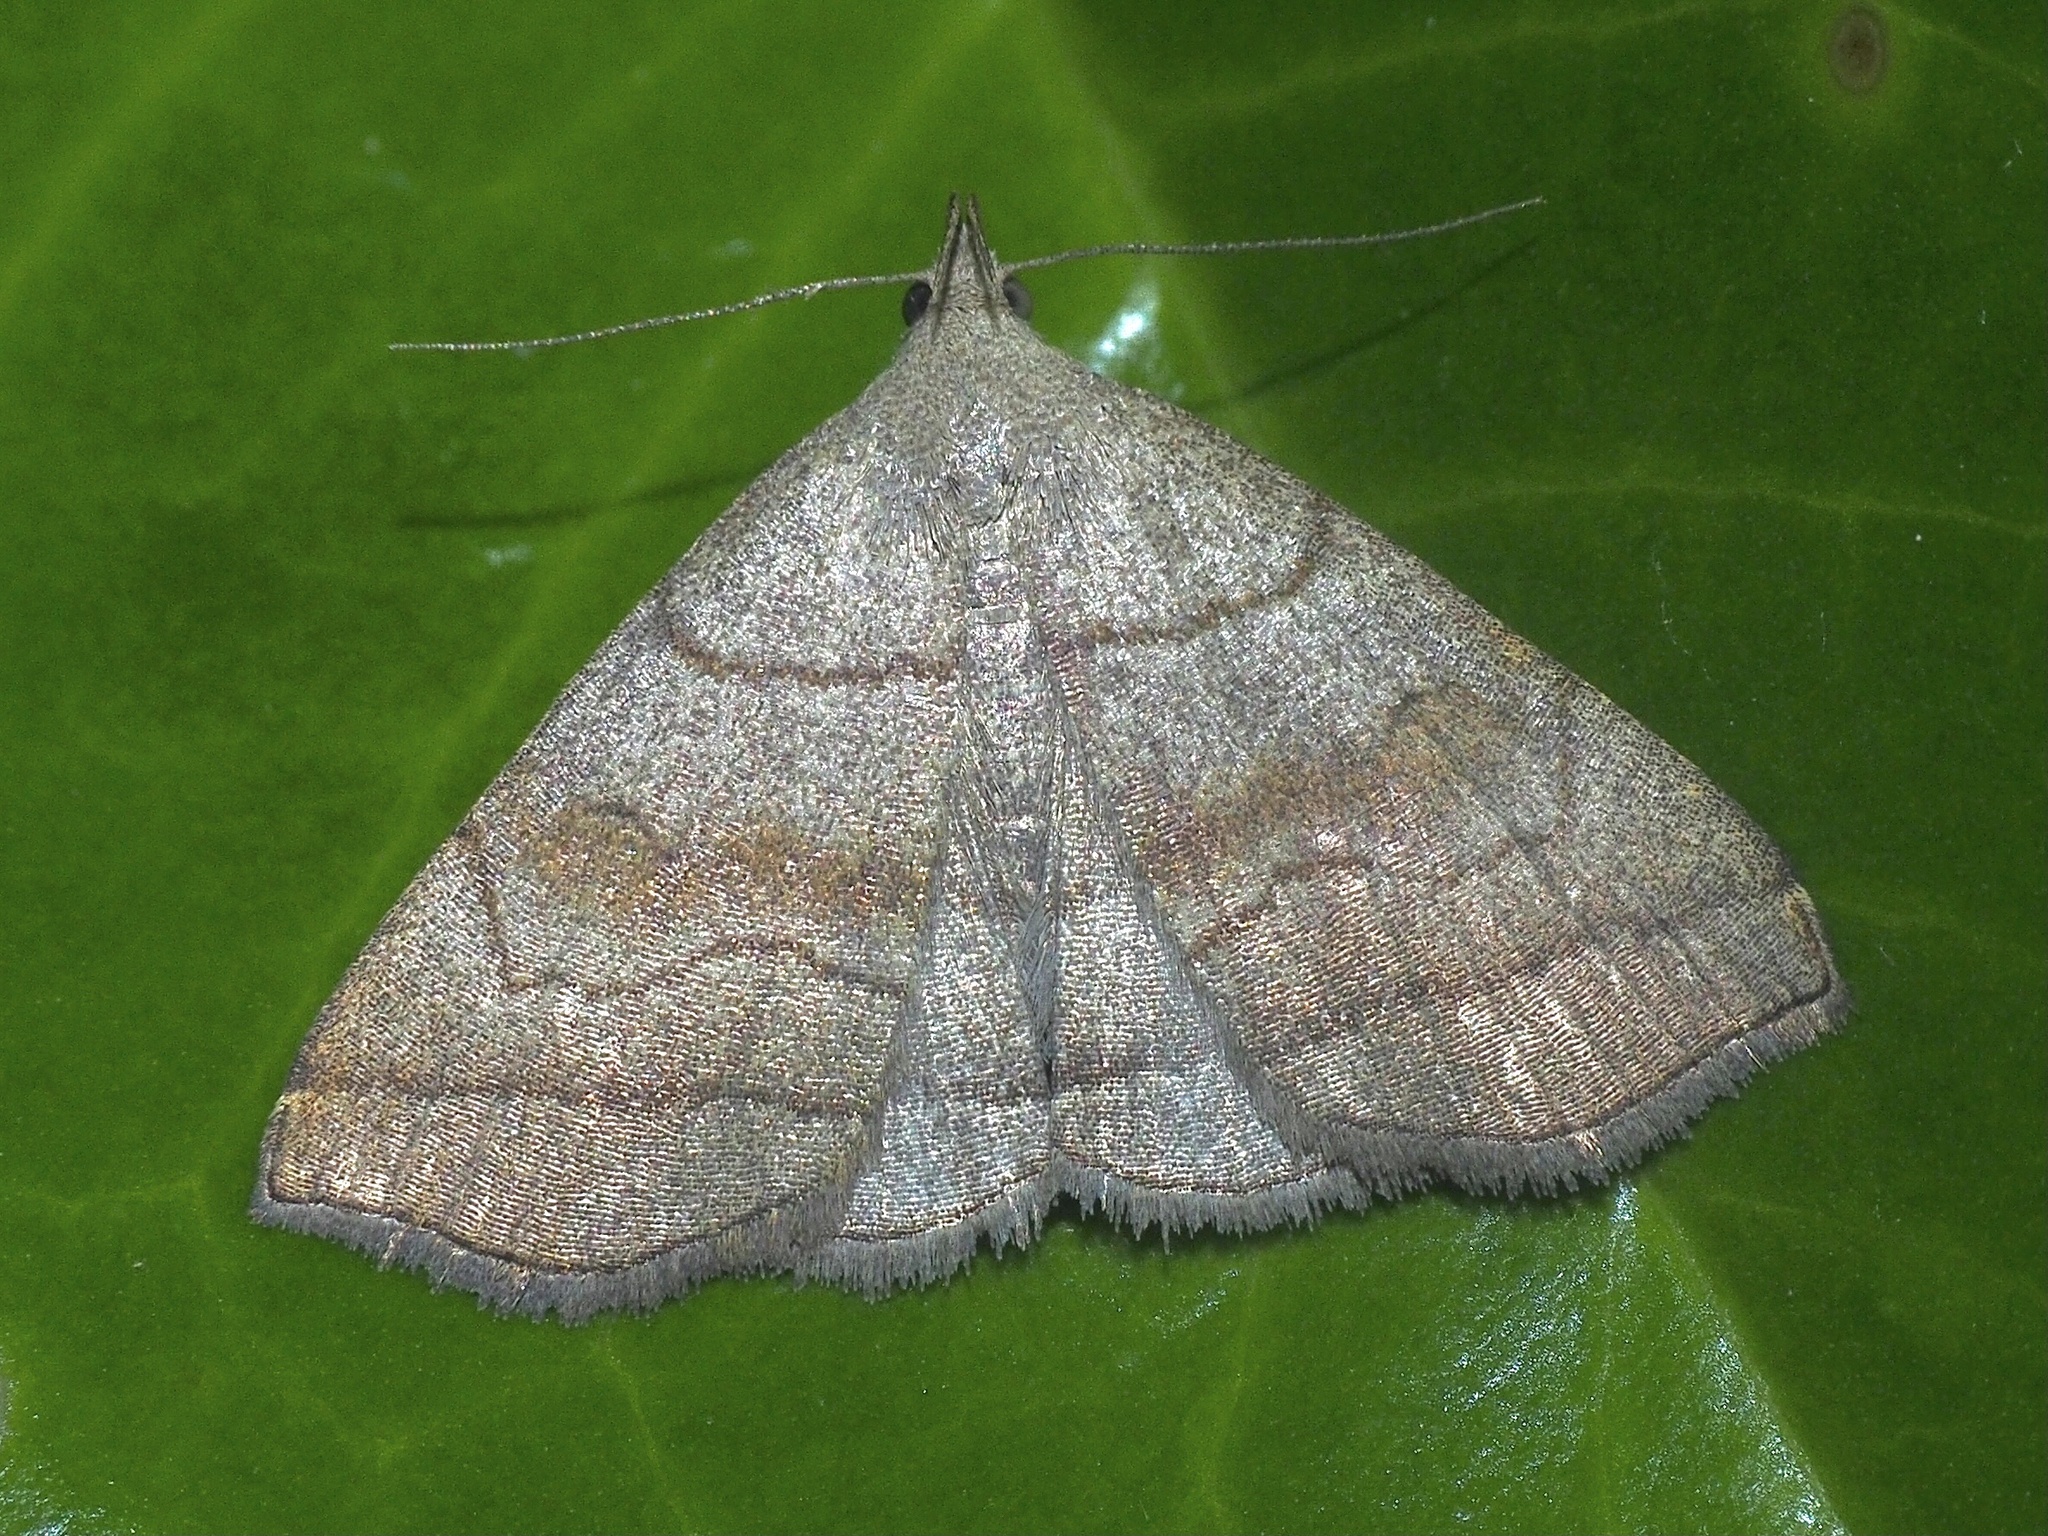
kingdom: Animalia
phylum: Arthropoda
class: Insecta
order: Lepidoptera
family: Erebidae
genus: Herminia
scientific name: Herminia tarsicrinalis
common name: Shaded fan-foot
